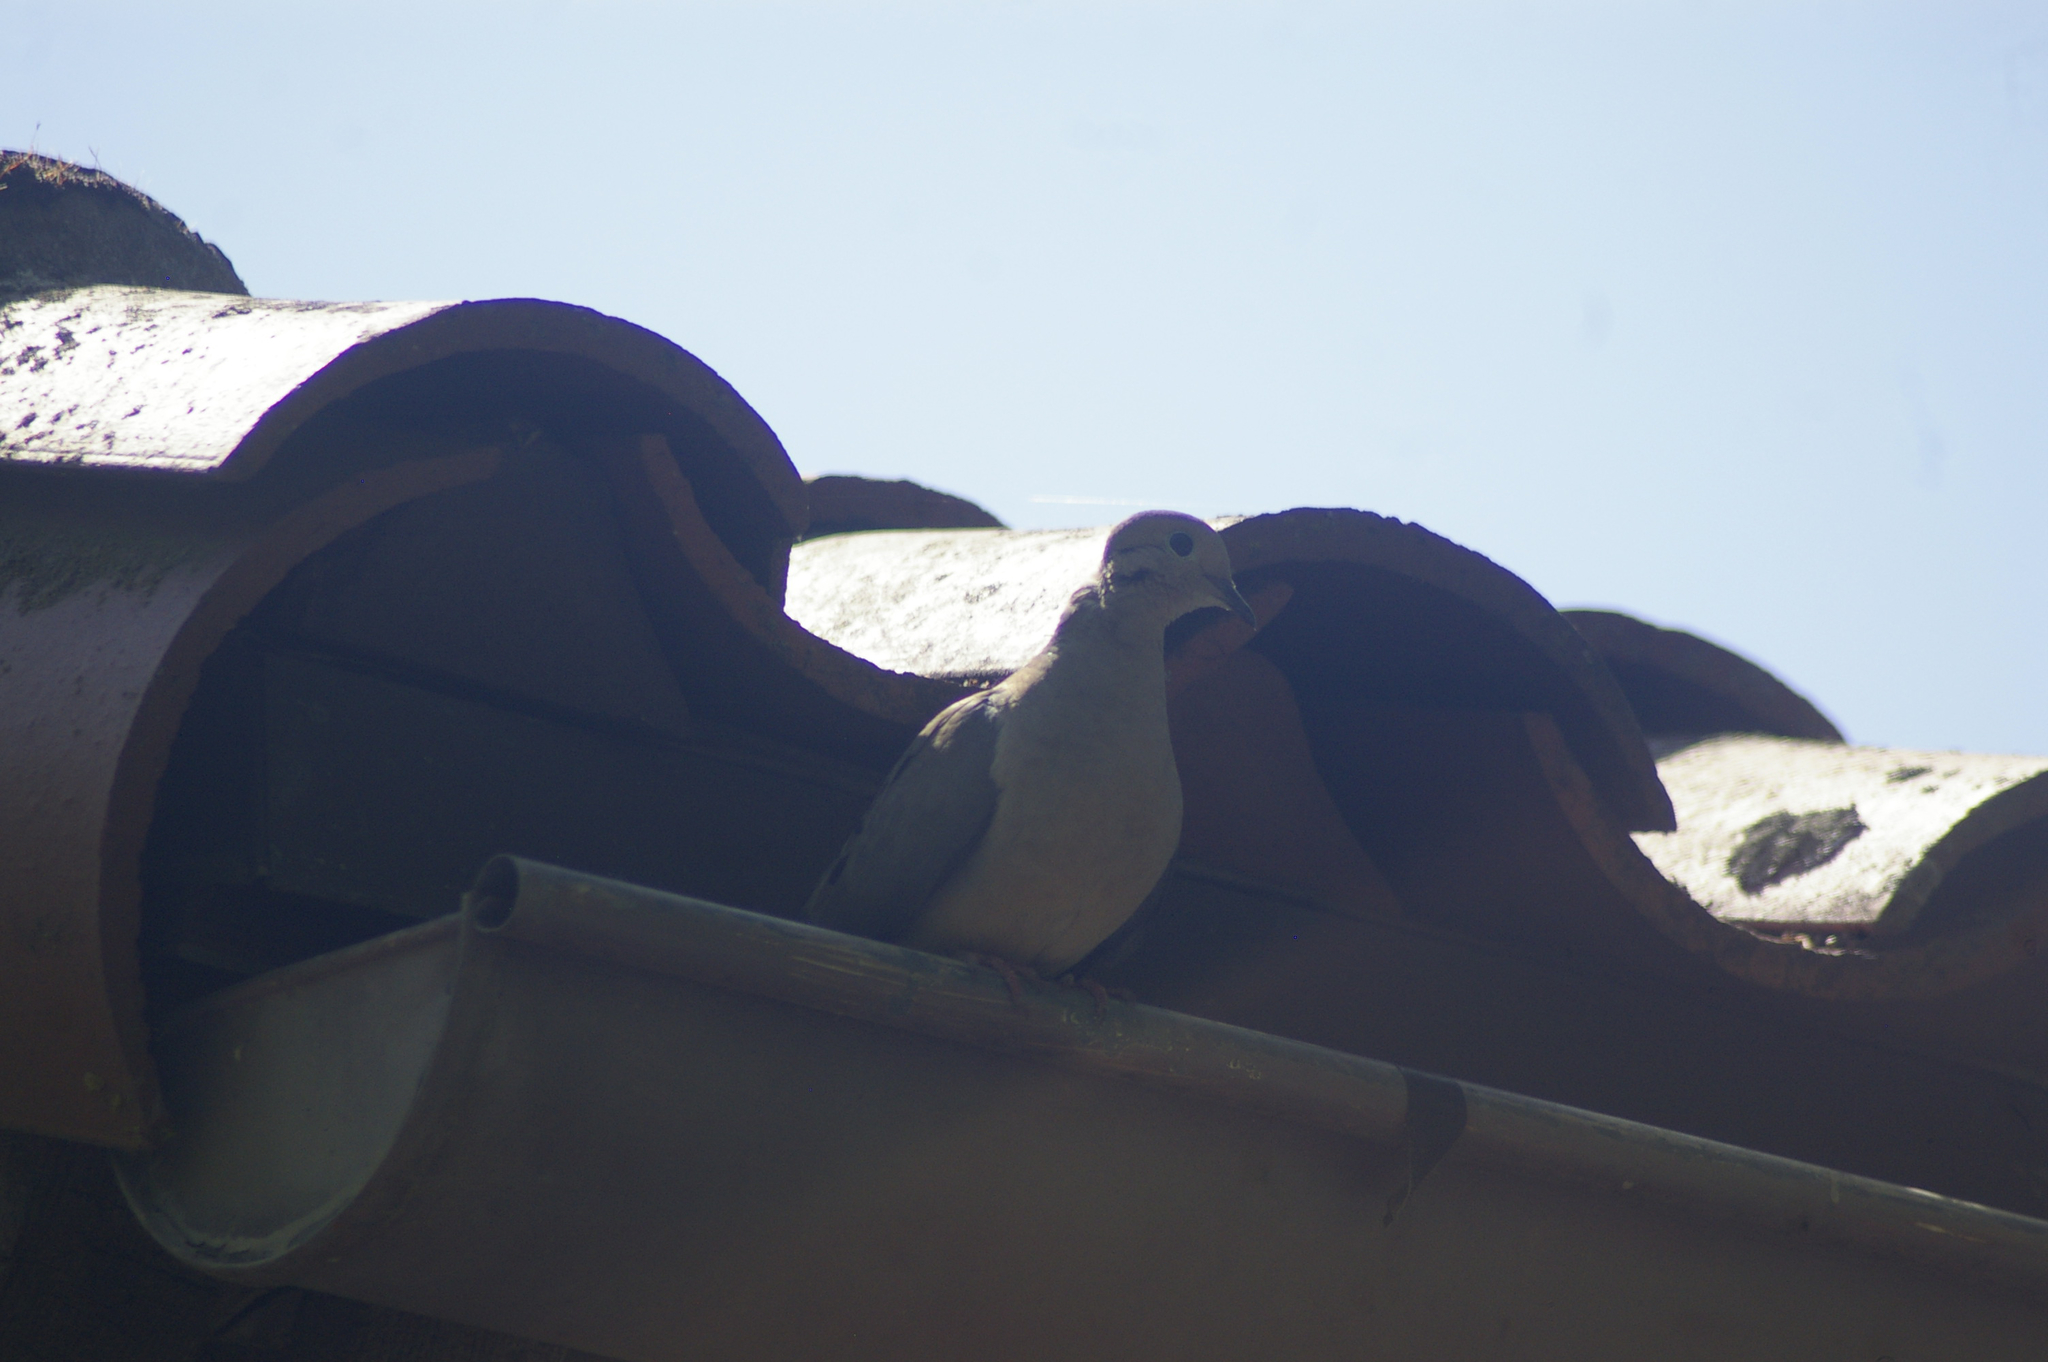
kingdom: Animalia
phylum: Chordata
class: Aves
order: Columbiformes
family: Columbidae
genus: Zenaida
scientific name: Zenaida macroura
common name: Mourning dove
